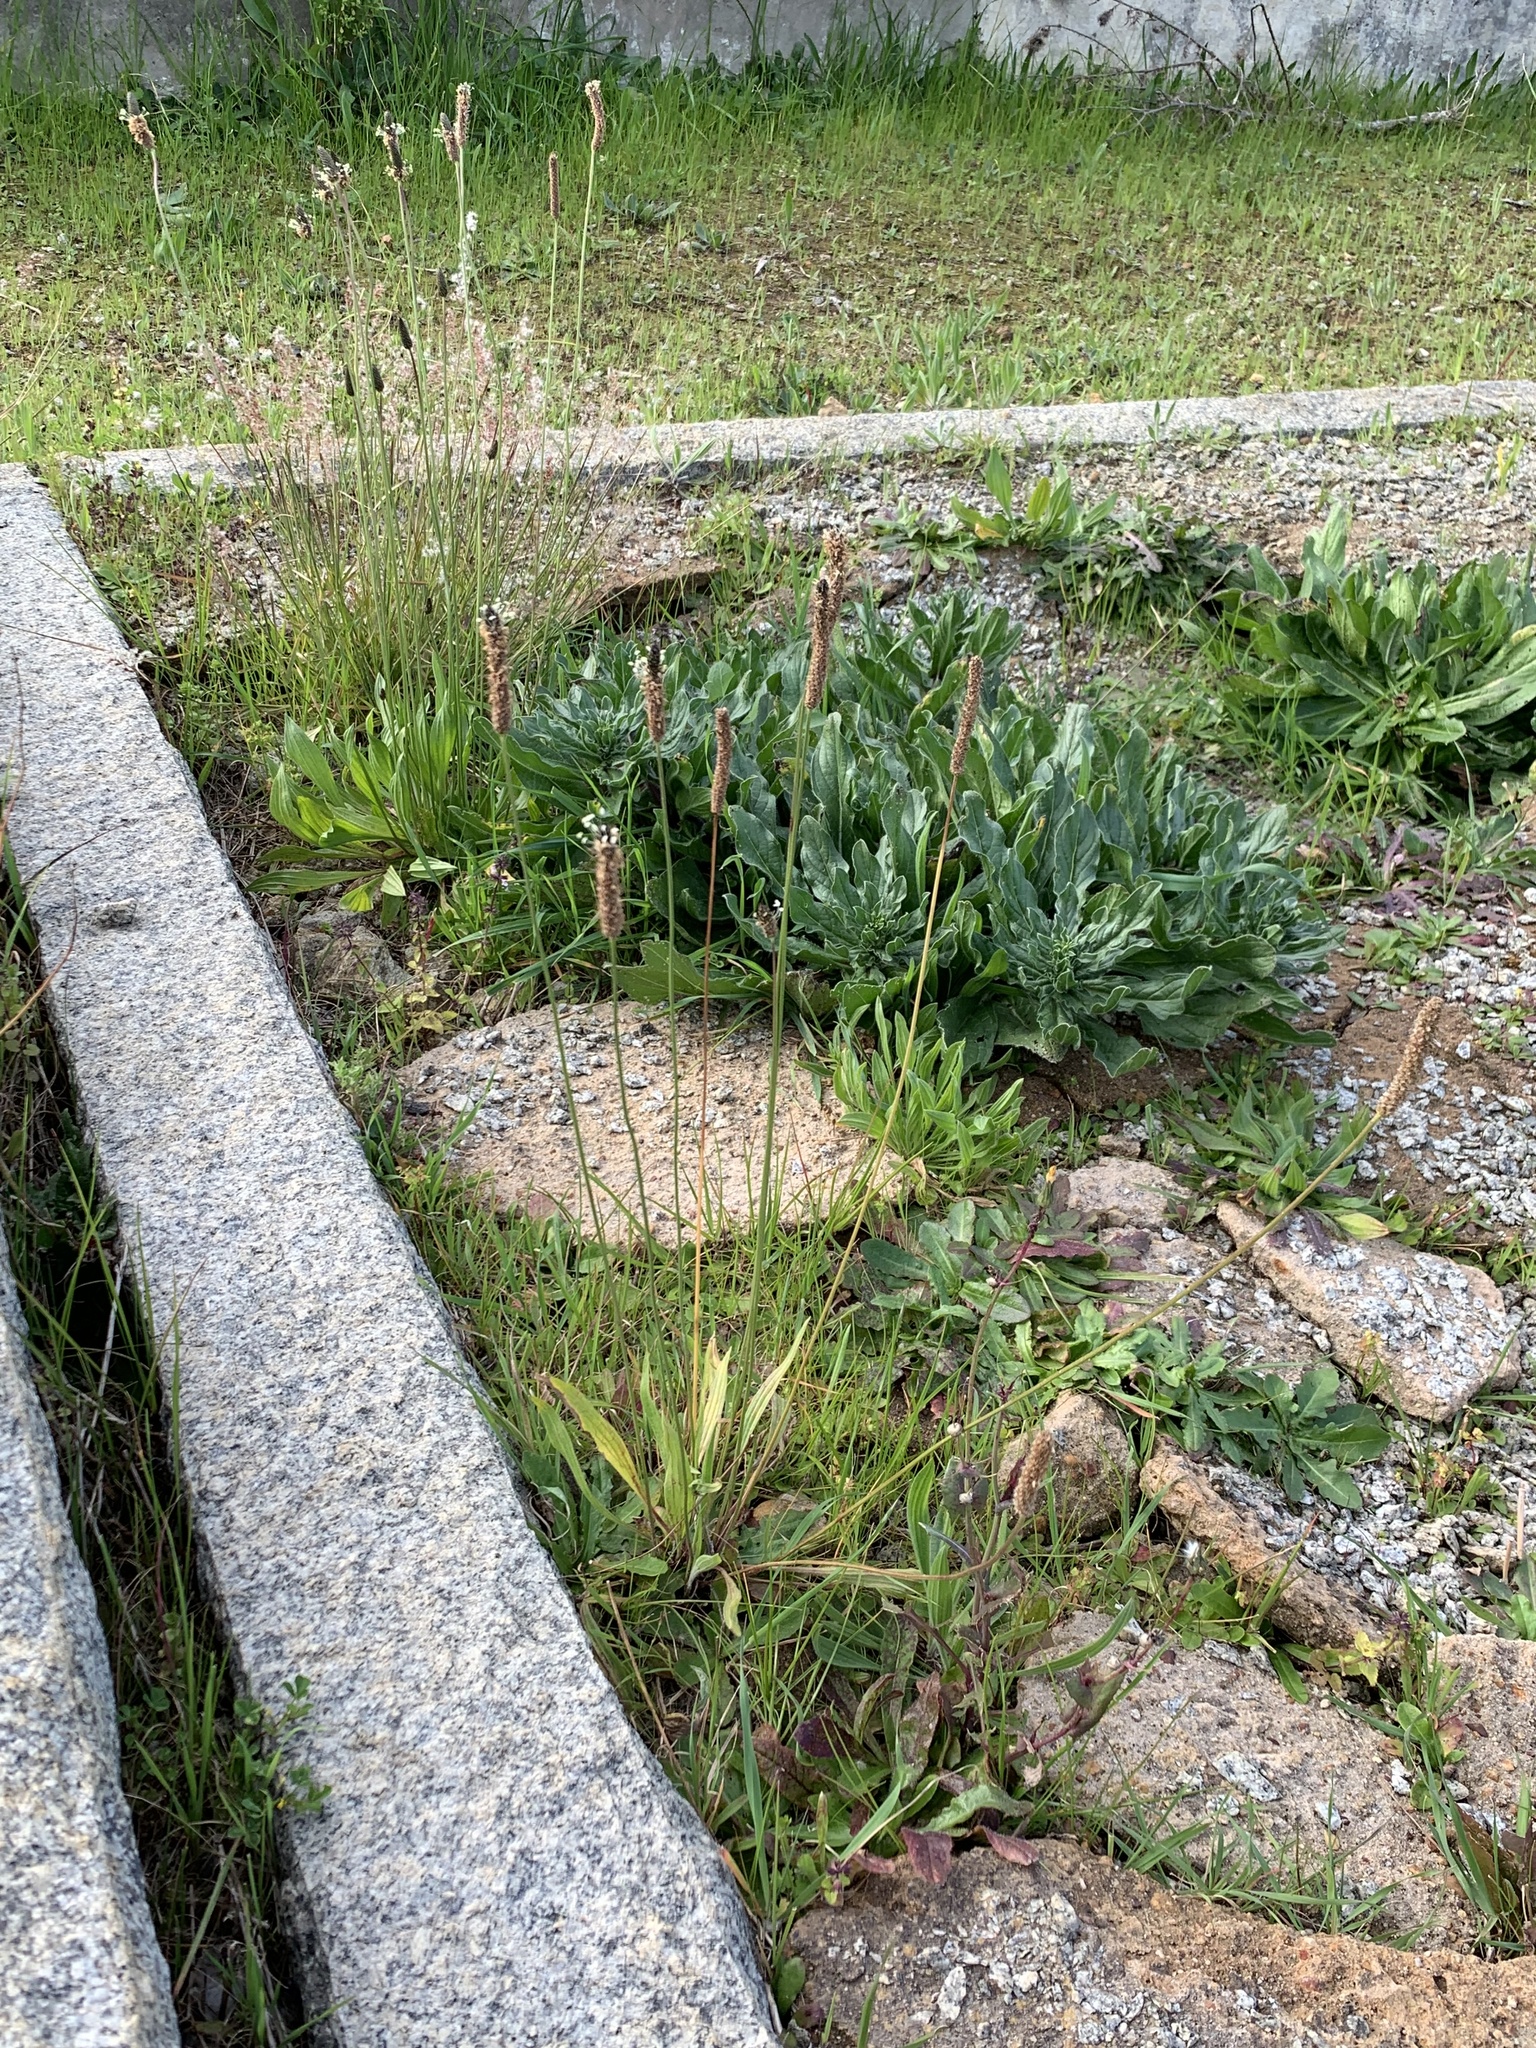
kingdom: Plantae
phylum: Tracheophyta
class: Magnoliopsida
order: Lamiales
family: Plantaginaceae
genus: Plantago
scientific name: Plantago lanceolata
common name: Ribwort plantain
